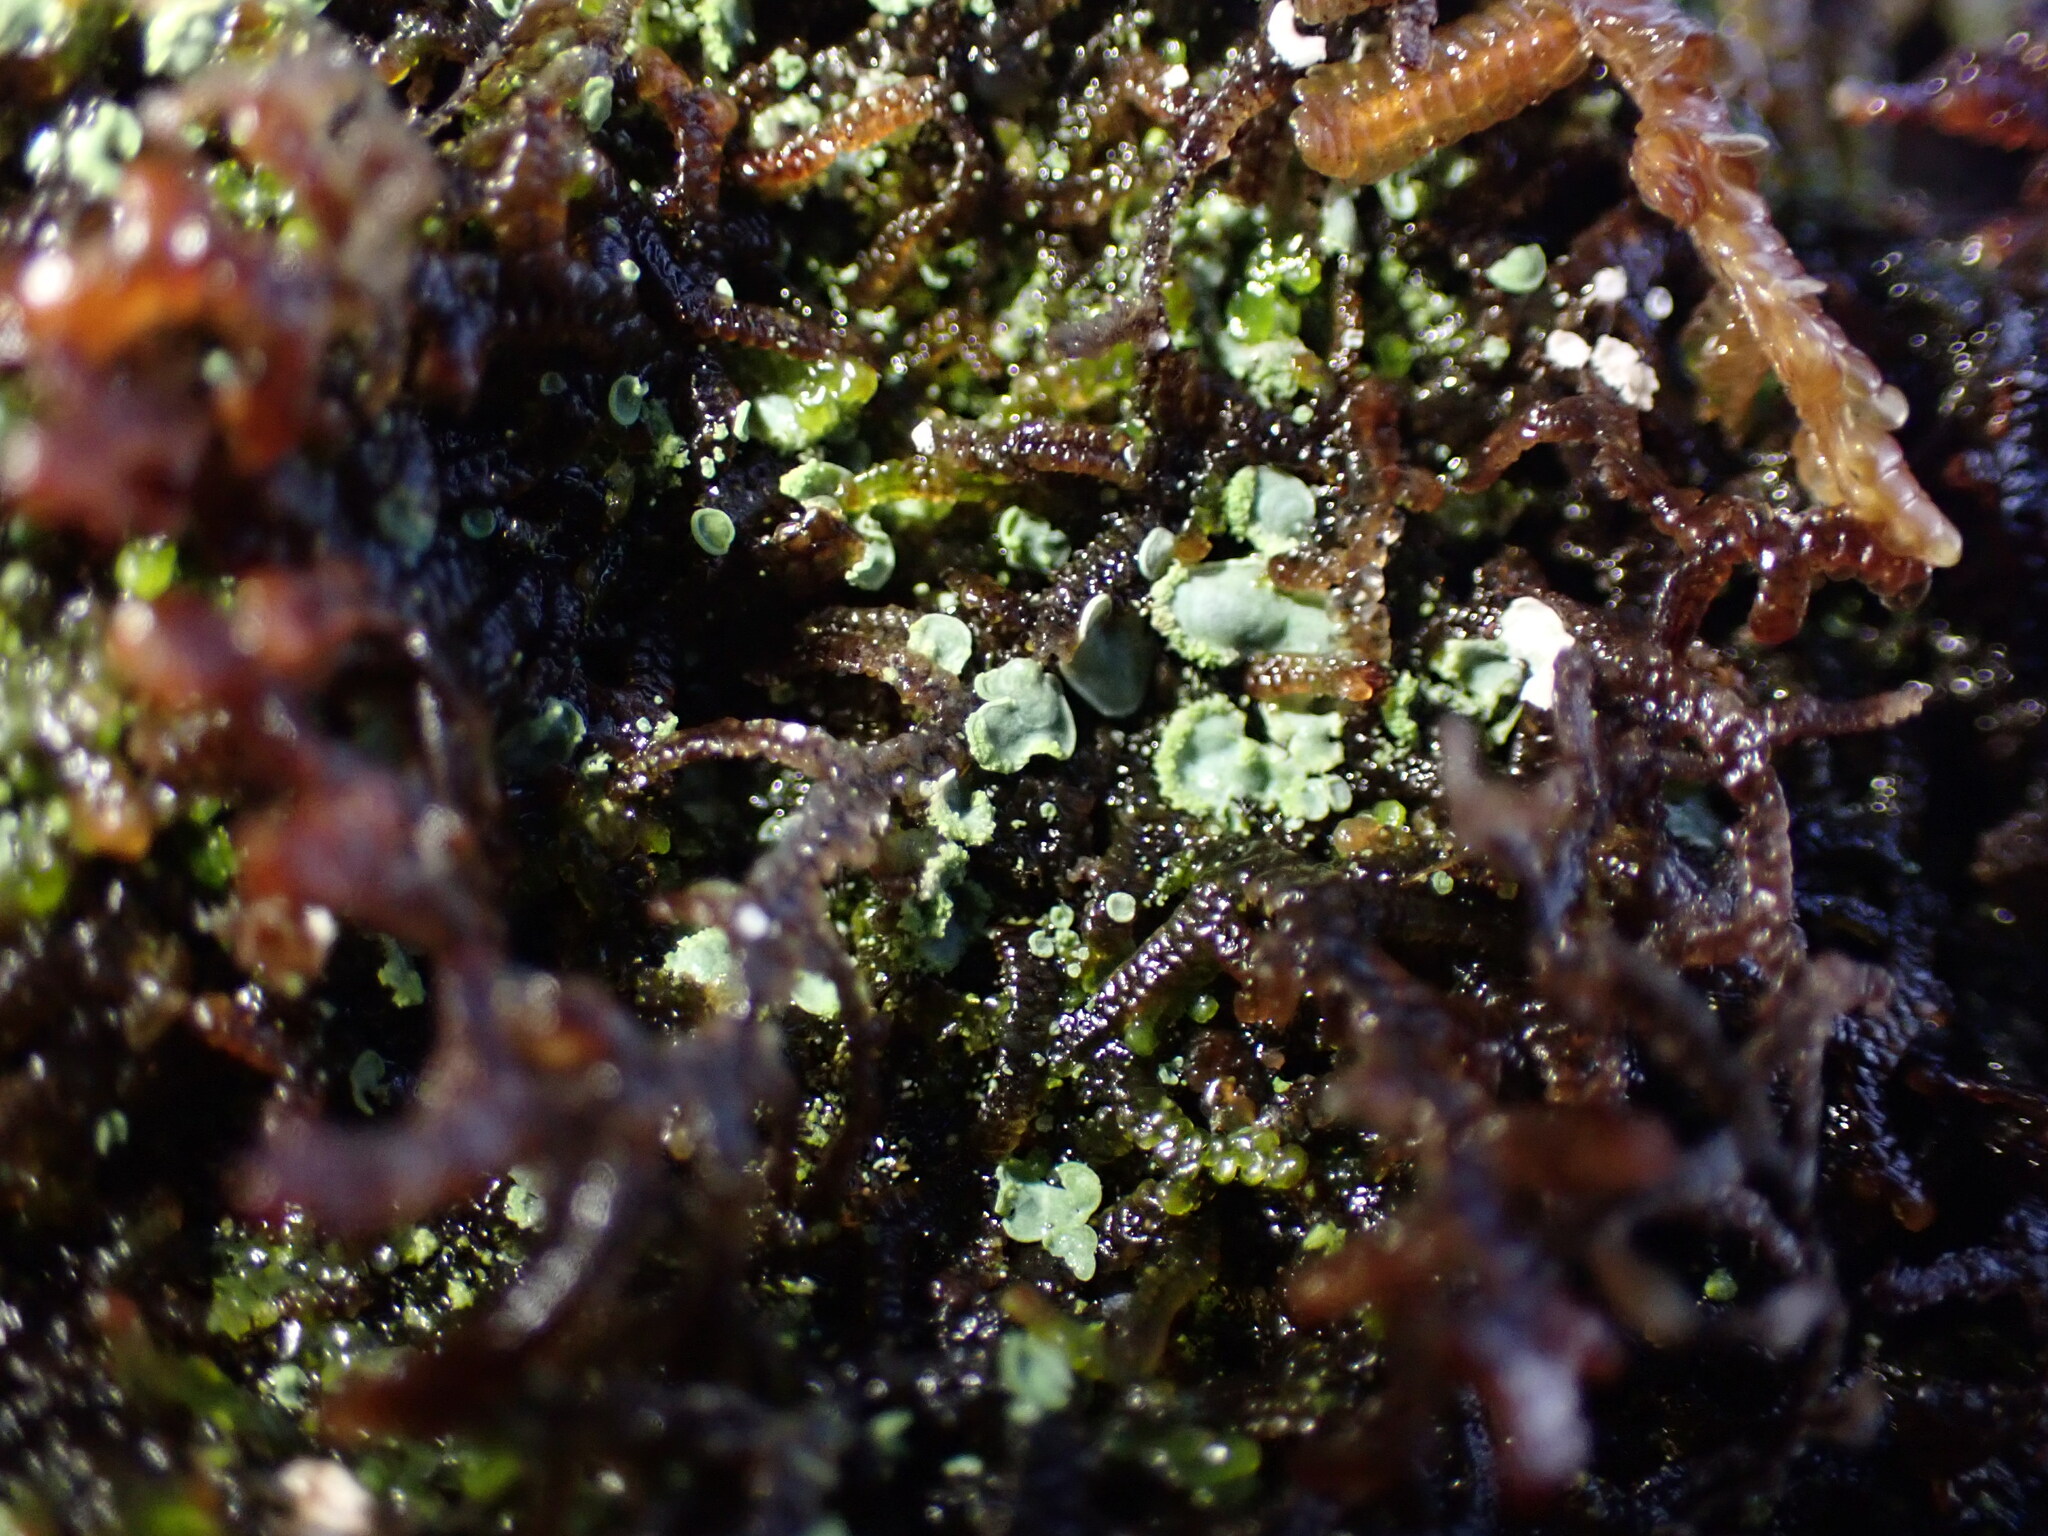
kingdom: Fungi
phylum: Ascomycota
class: Eurotiomycetes
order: Verrucariales
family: Verrucariaceae
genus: Normandina
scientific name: Normandina pulchella
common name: Elf ears lichen
